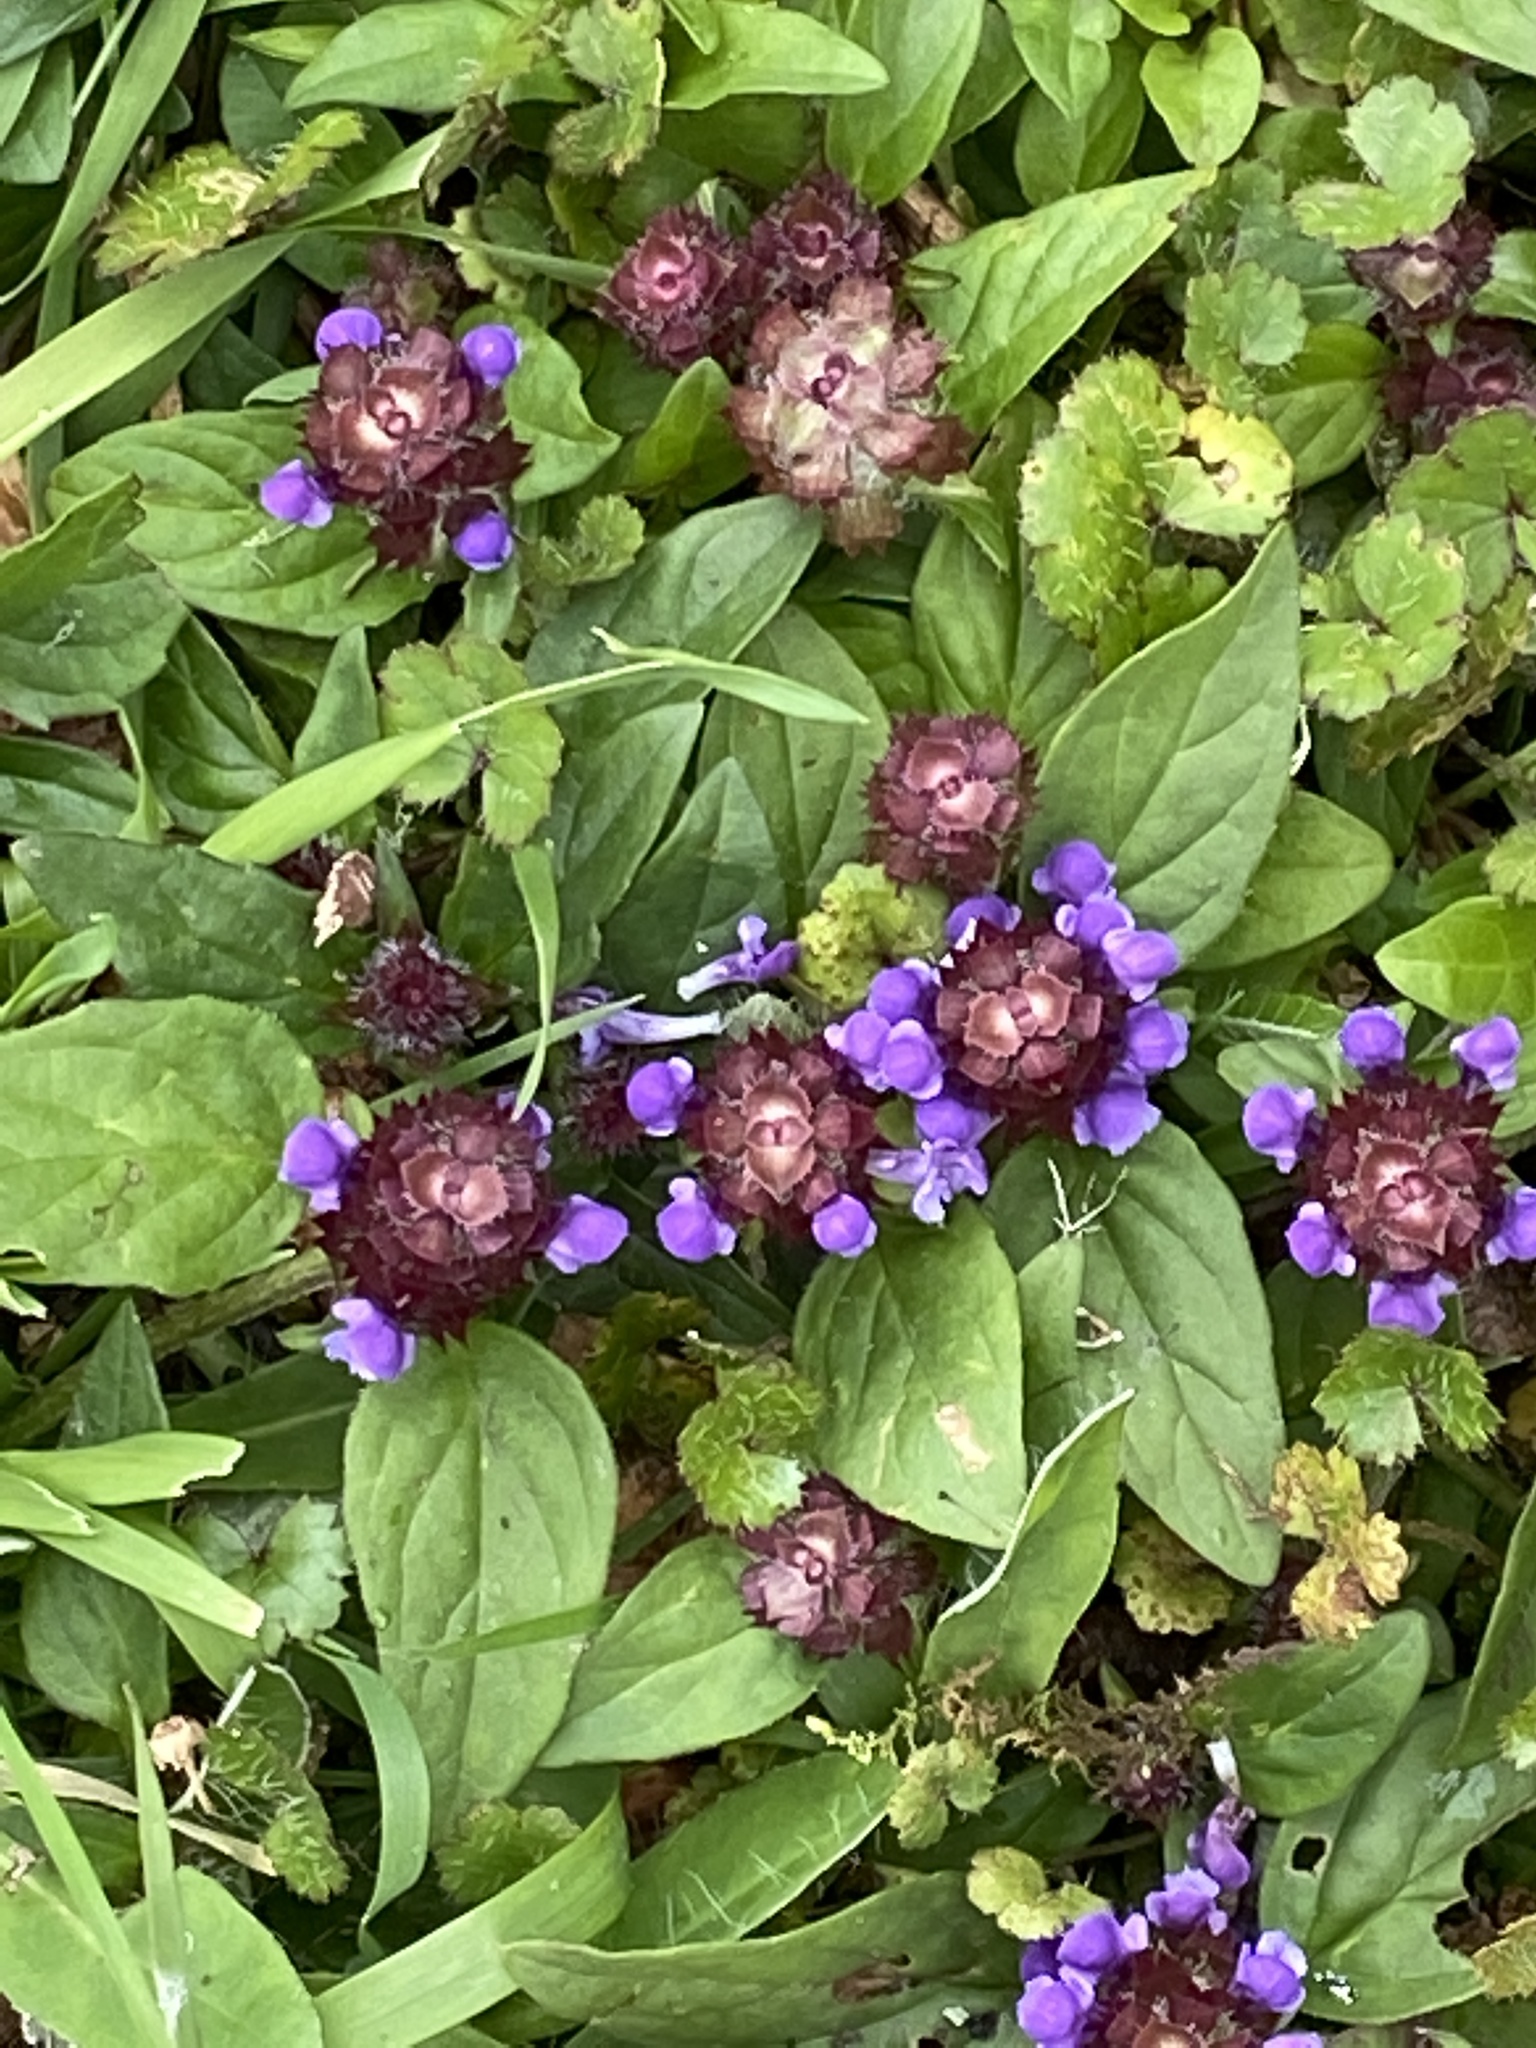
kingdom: Plantae
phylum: Tracheophyta
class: Magnoliopsida
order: Lamiales
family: Lamiaceae
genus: Prunella
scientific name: Prunella vulgaris
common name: Heal-all
